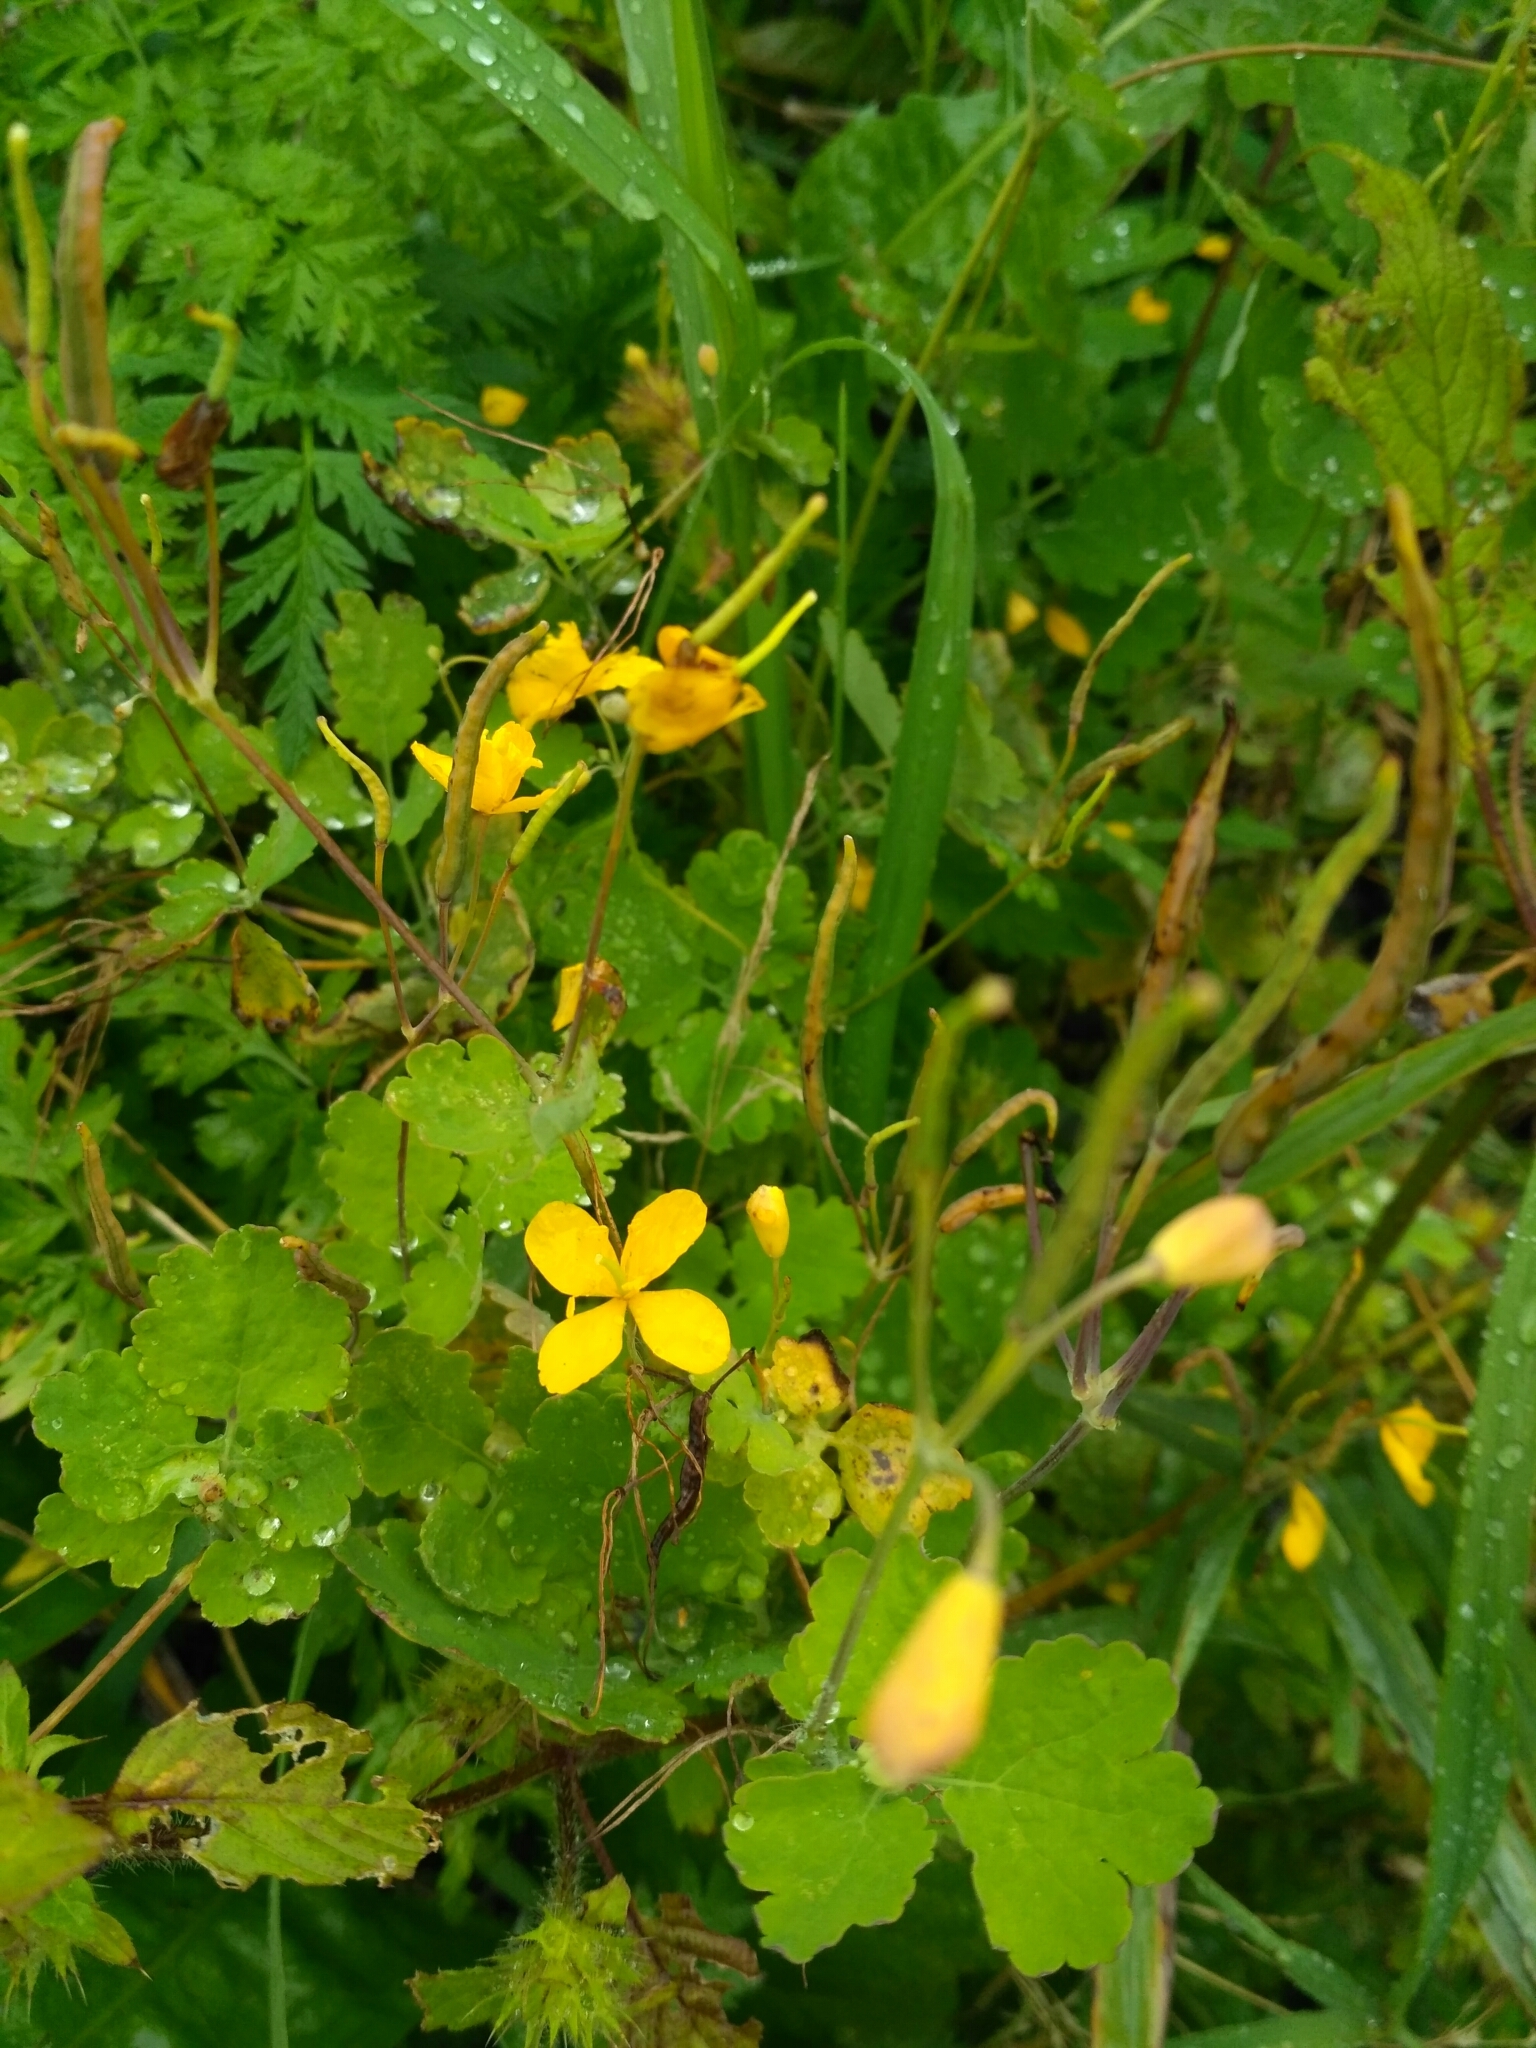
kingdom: Plantae
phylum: Tracheophyta
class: Magnoliopsida
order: Ranunculales
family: Papaveraceae
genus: Chelidonium
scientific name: Chelidonium majus
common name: Greater celandine
